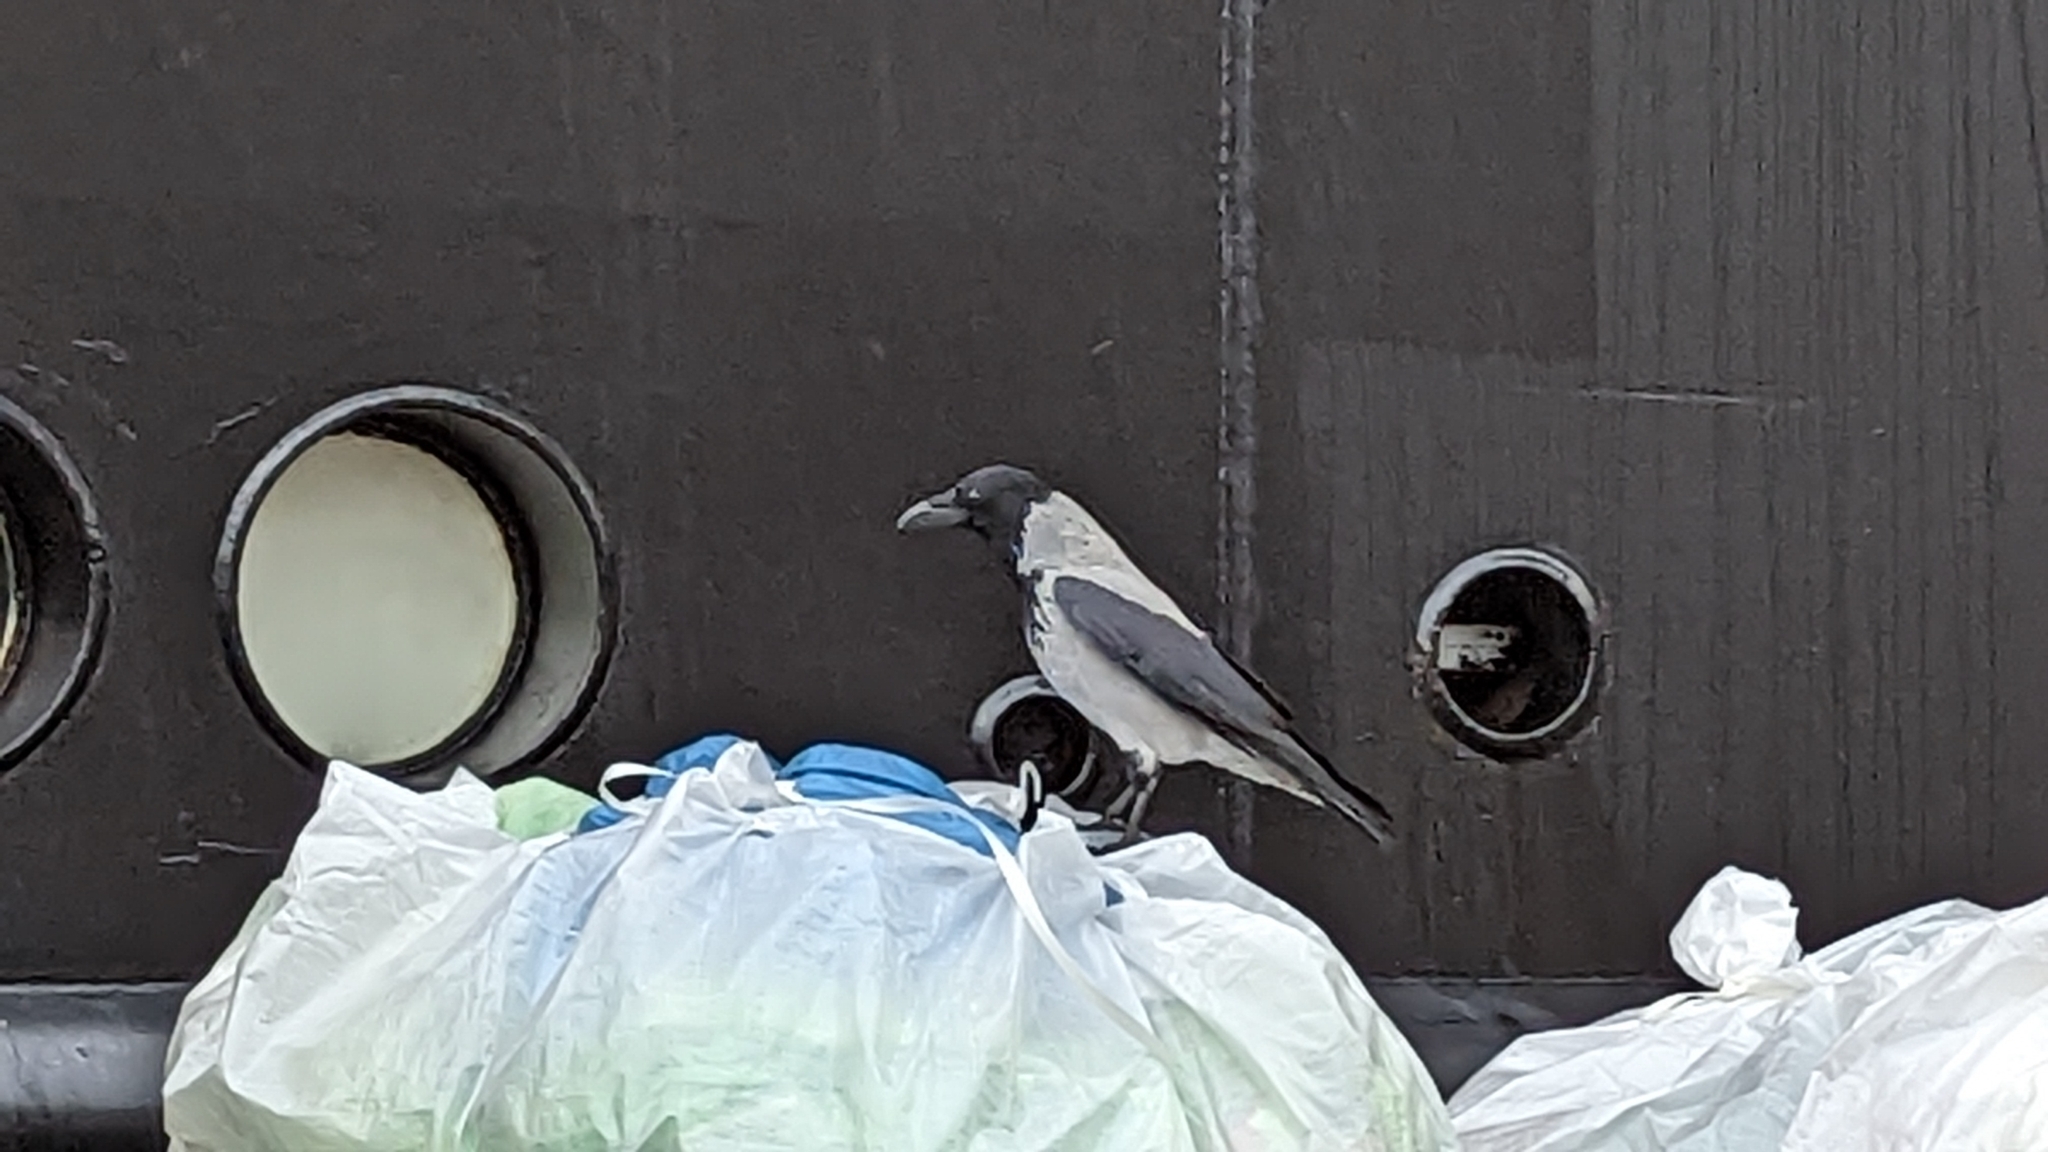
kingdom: Animalia
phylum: Chordata
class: Aves
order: Passeriformes
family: Corvidae
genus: Corvus
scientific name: Corvus cornix
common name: Hooded crow
